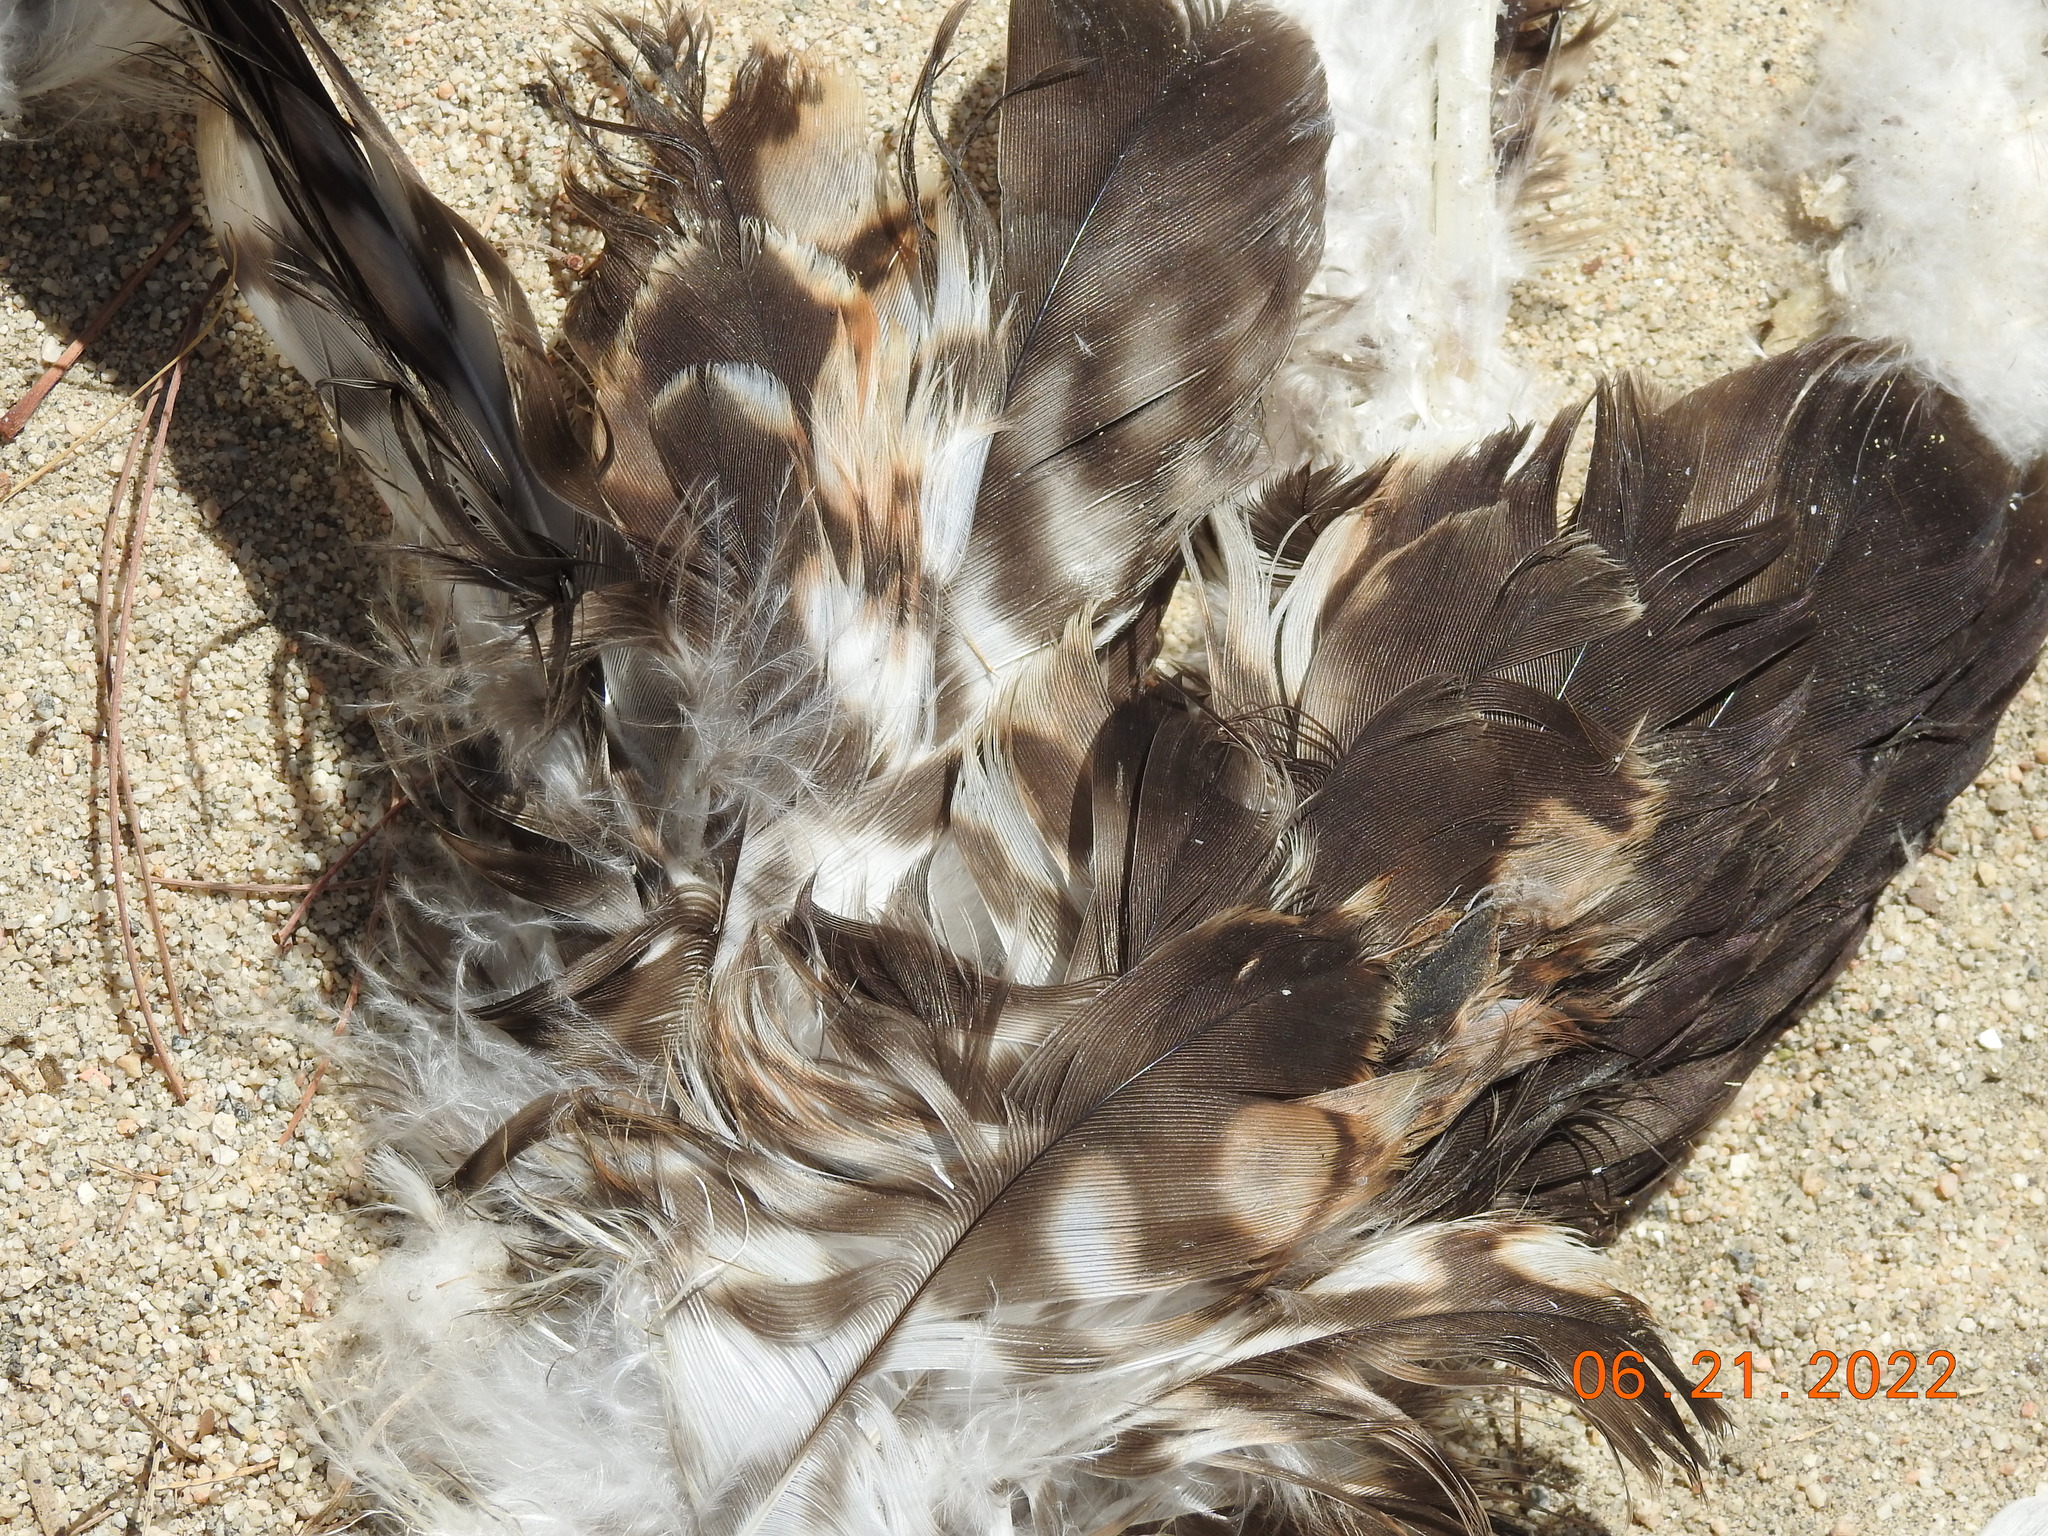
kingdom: Animalia
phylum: Chordata
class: Aves
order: Accipitriformes
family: Accipitridae
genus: Buteo
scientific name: Buteo jamaicensis
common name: Red-tailed hawk
